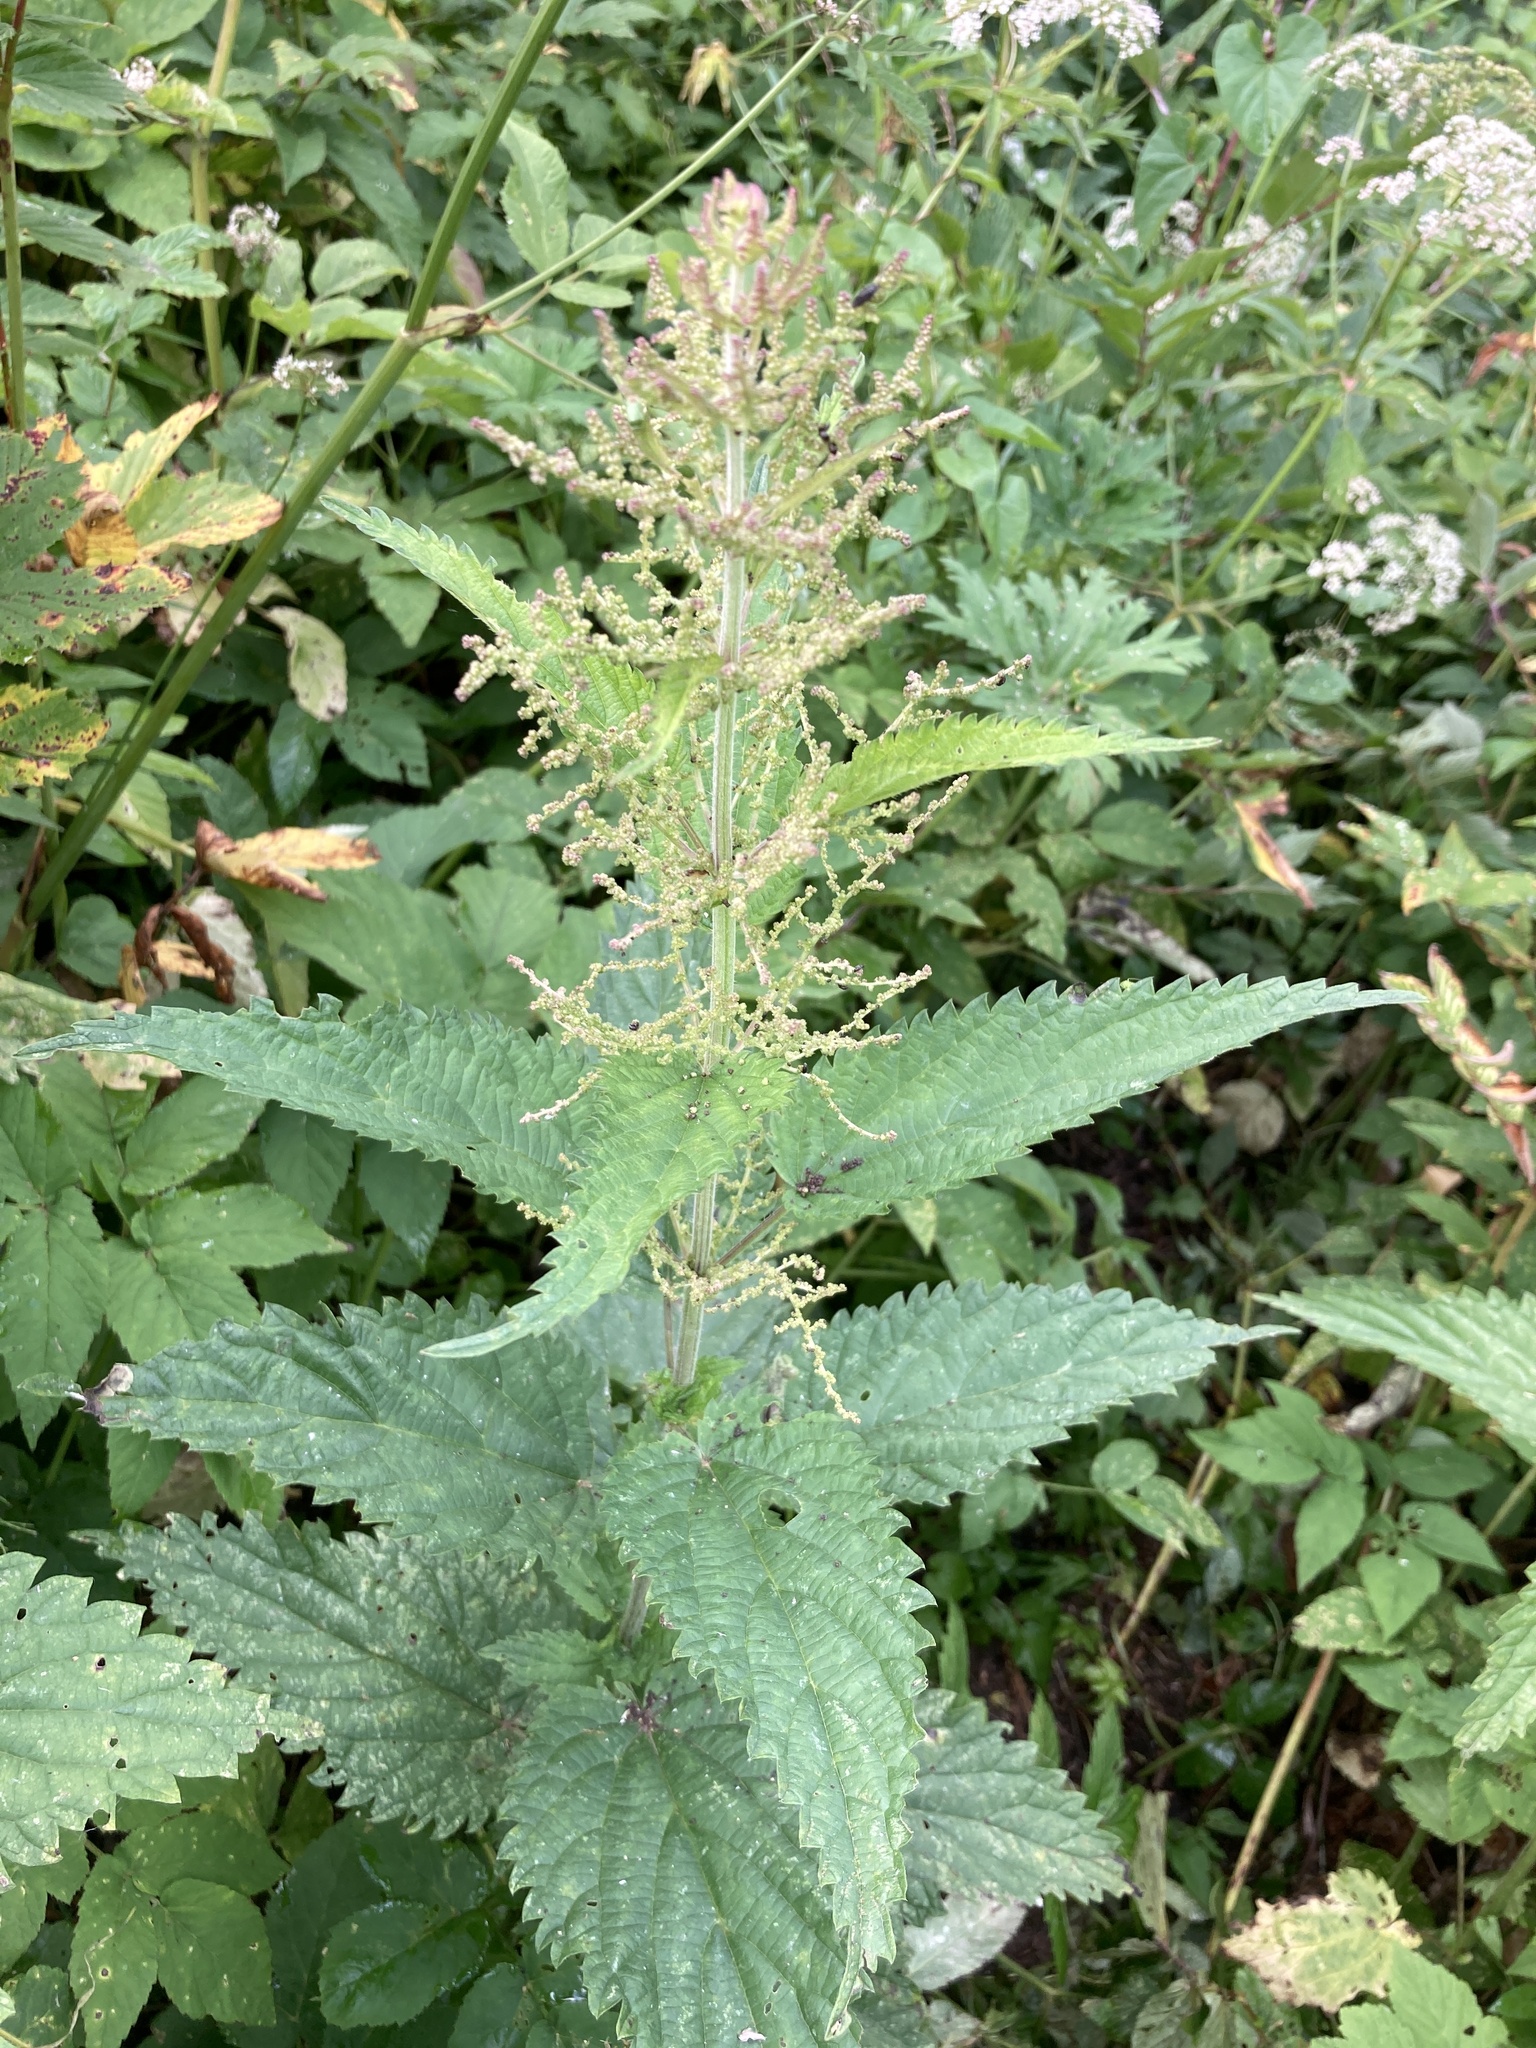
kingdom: Plantae
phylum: Tracheophyta
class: Magnoliopsida
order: Rosales
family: Urticaceae
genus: Urtica
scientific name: Urtica dioica
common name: Common nettle
